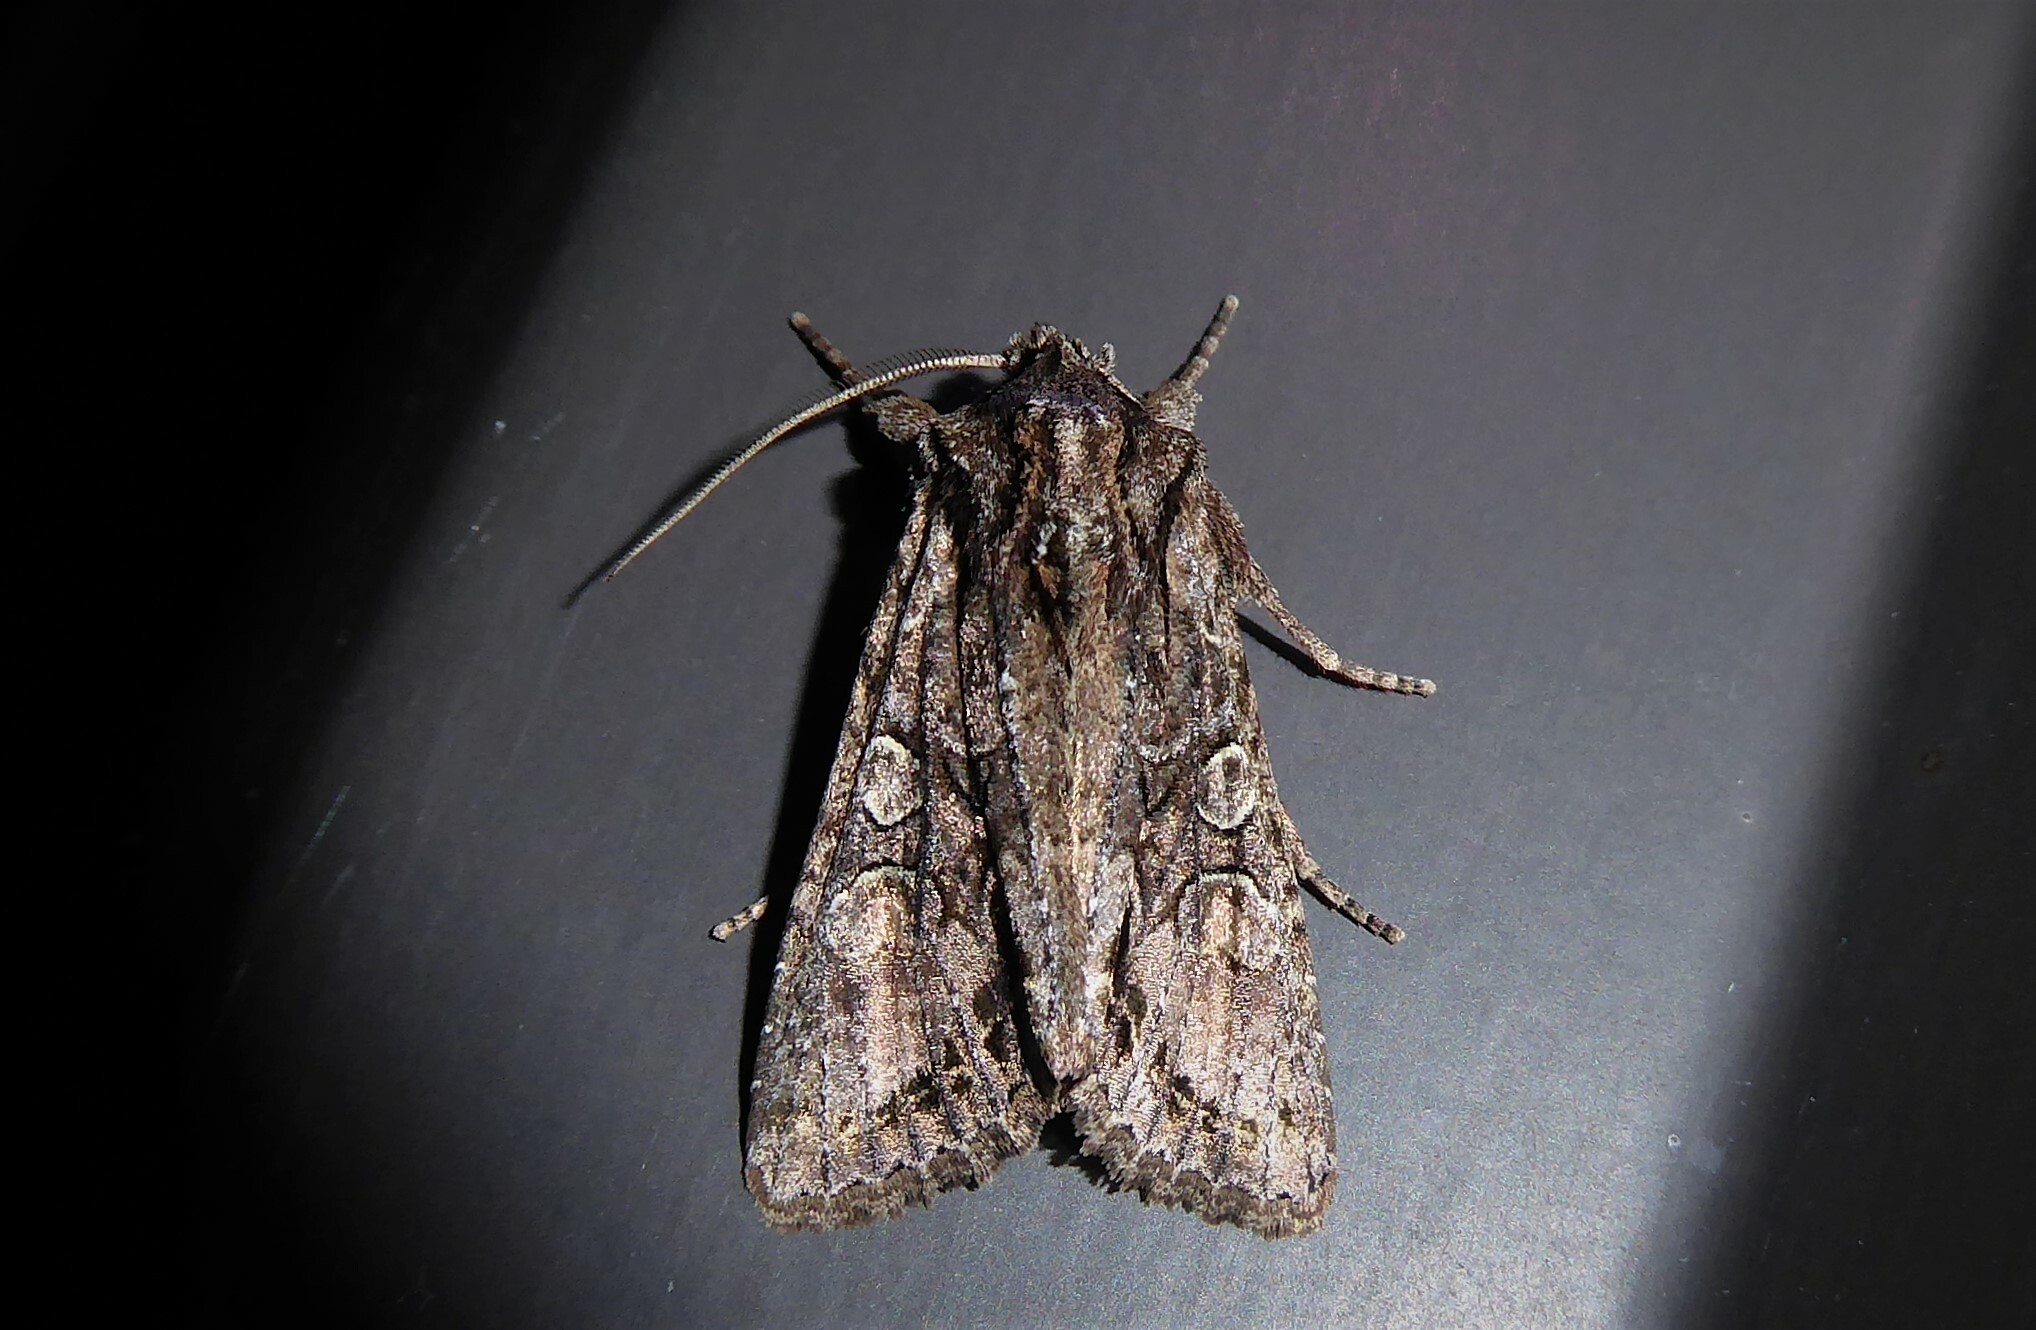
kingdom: Animalia
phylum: Arthropoda
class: Insecta
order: Lepidoptera
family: Noctuidae
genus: Ichneutica
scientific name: Ichneutica mutans
